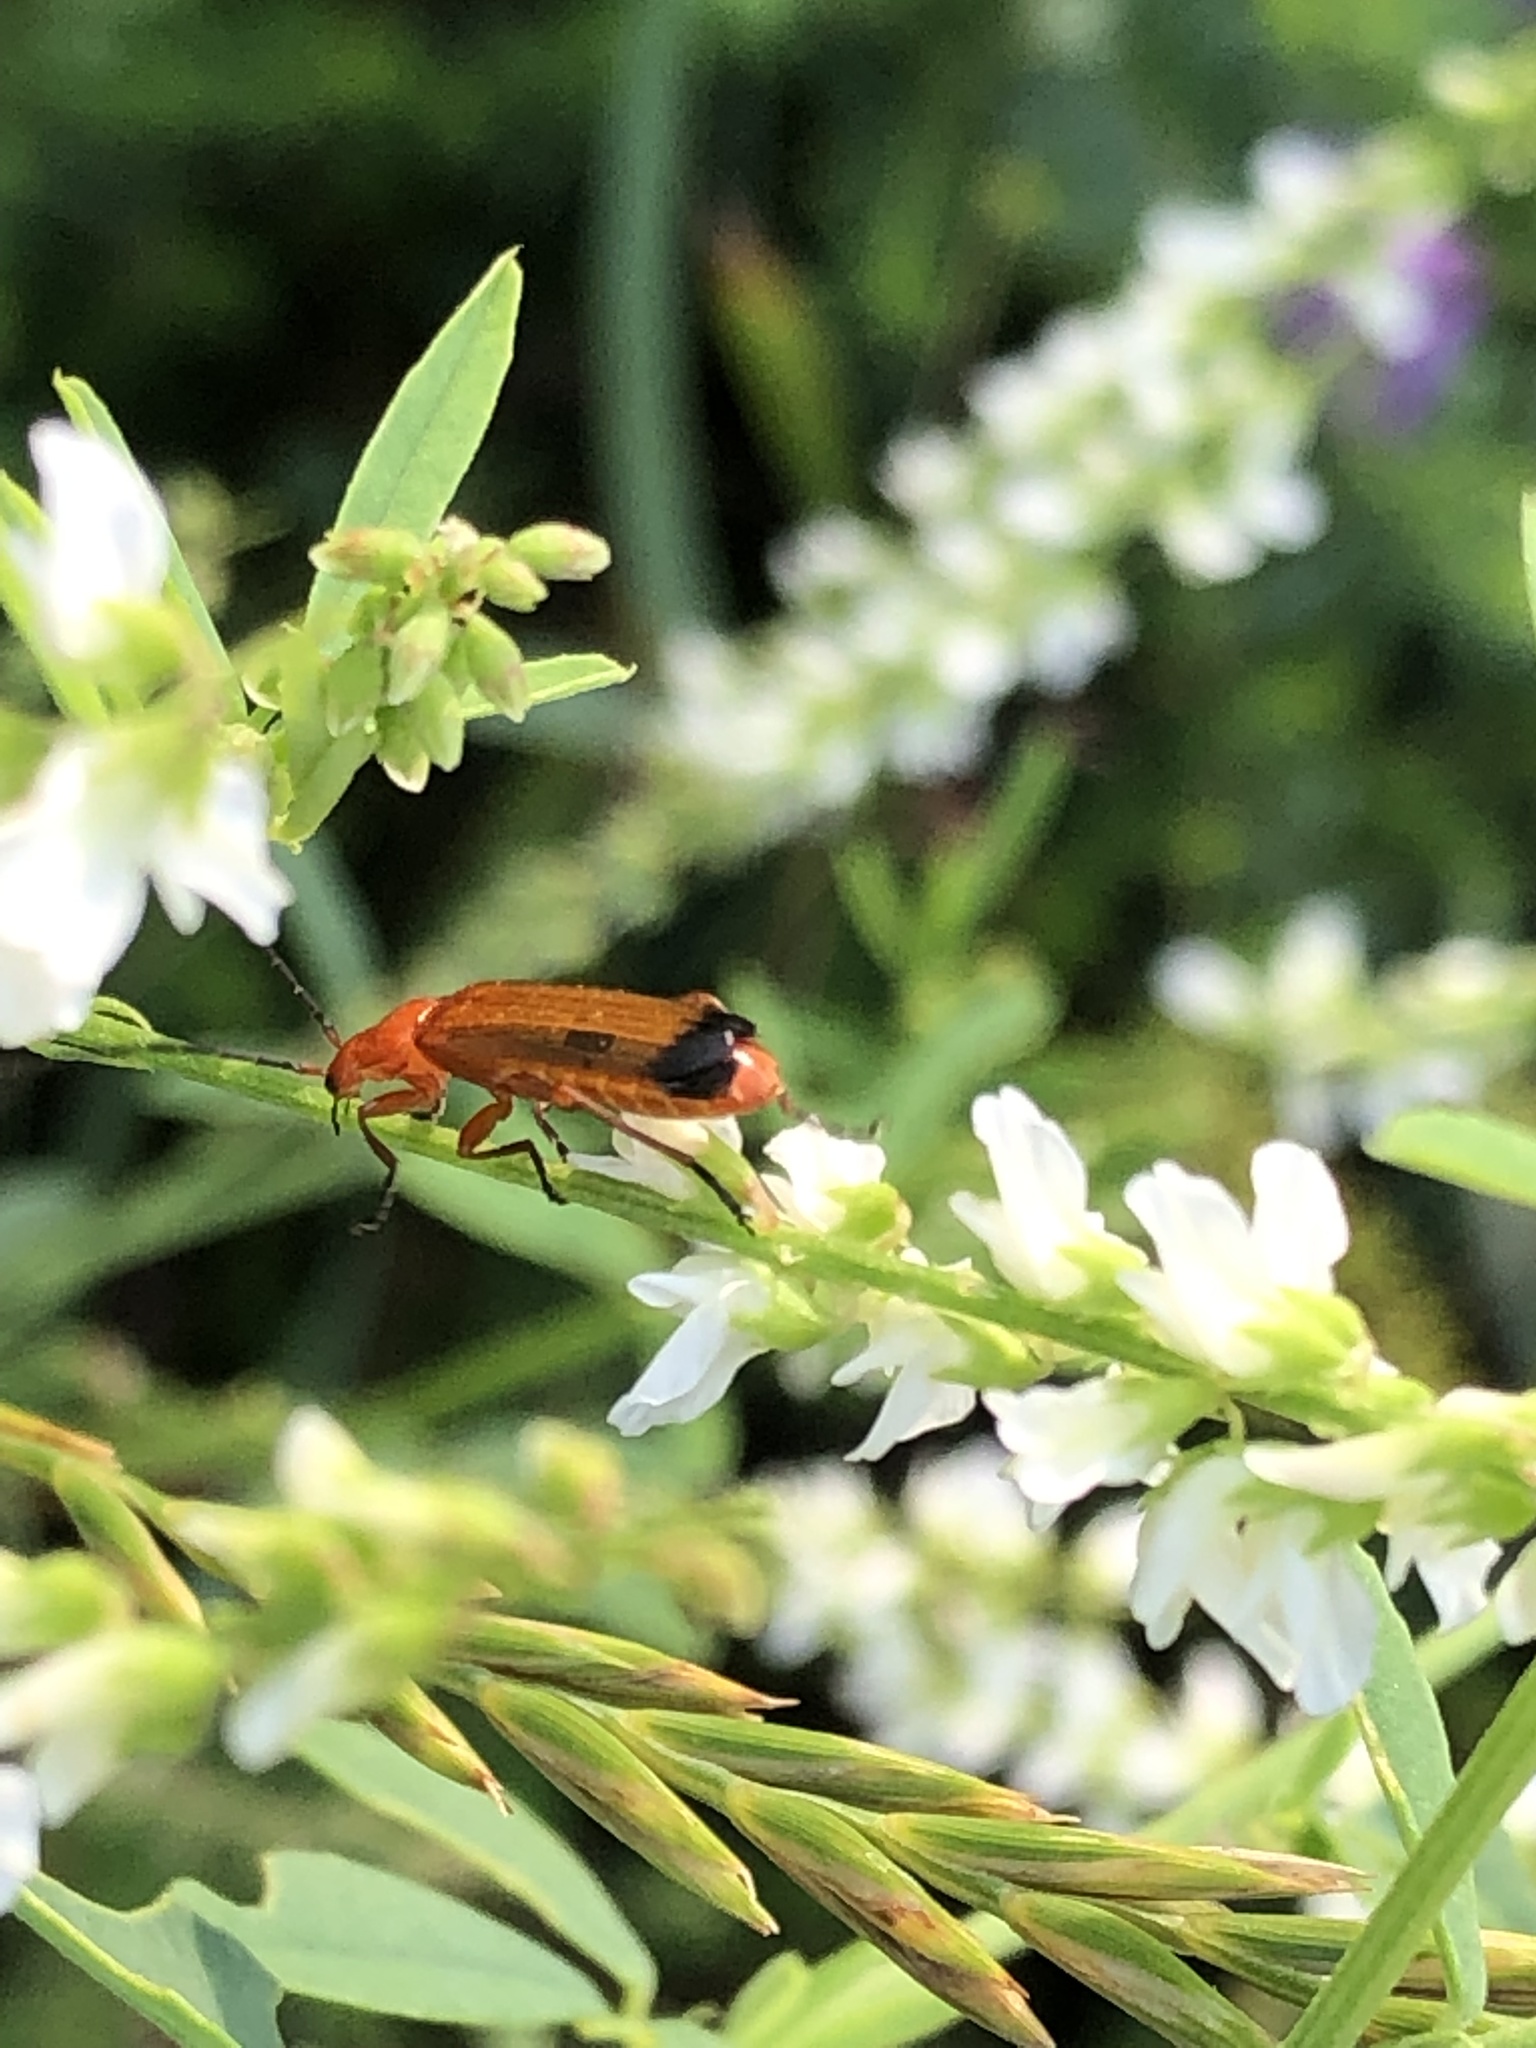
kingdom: Animalia
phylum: Arthropoda
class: Insecta
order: Coleoptera
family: Cantharidae
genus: Rhagonycha
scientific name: Rhagonycha fulva
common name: Common red soldier beetle
